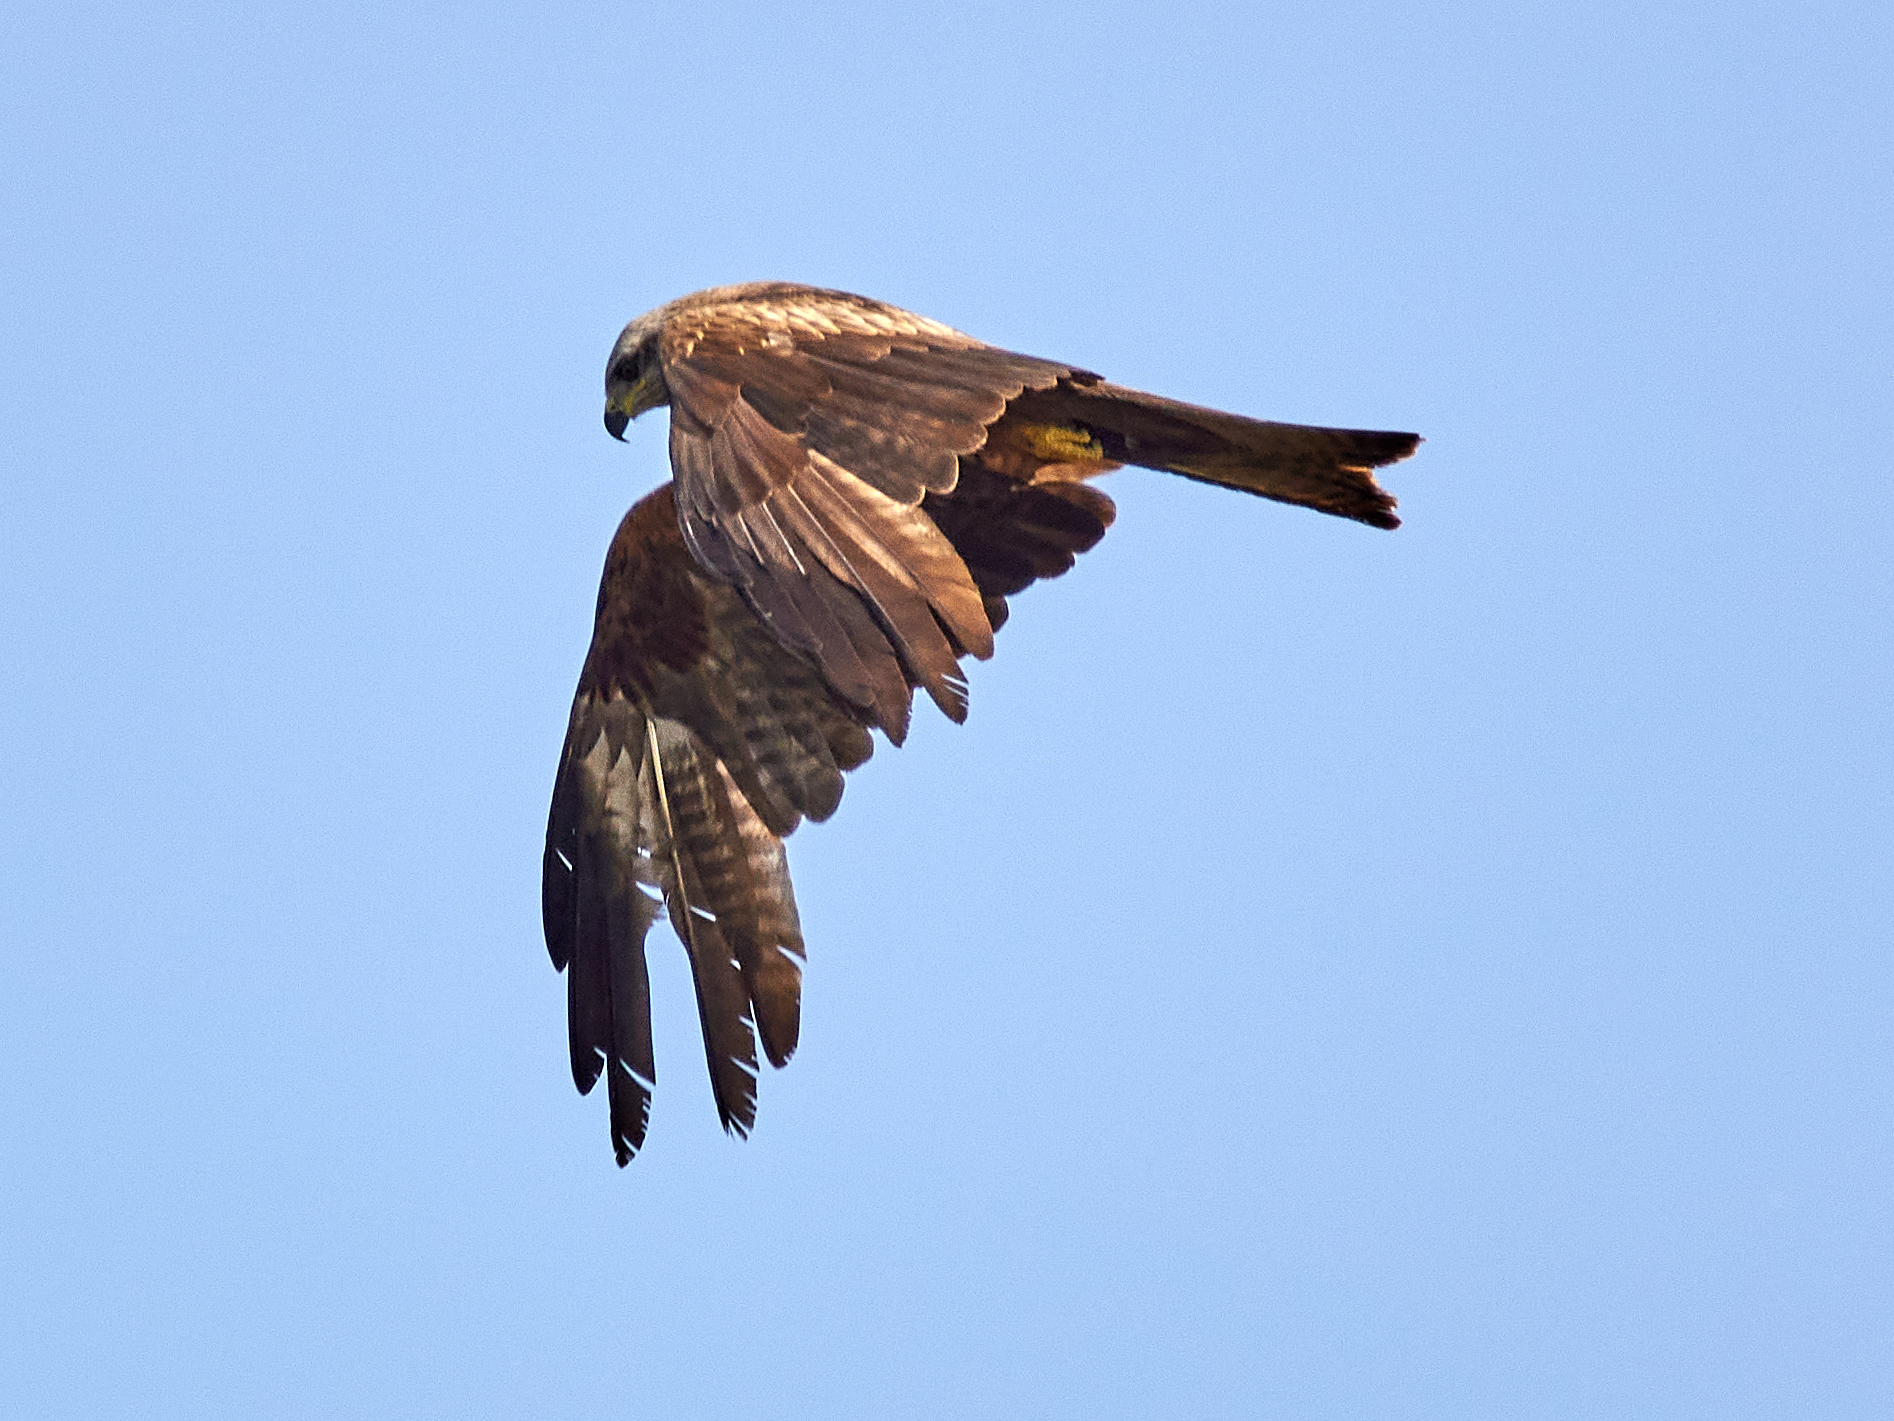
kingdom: Animalia
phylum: Chordata
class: Aves
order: Accipitriformes
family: Accipitridae
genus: Milvus
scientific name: Milvus migrans
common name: Black kite
